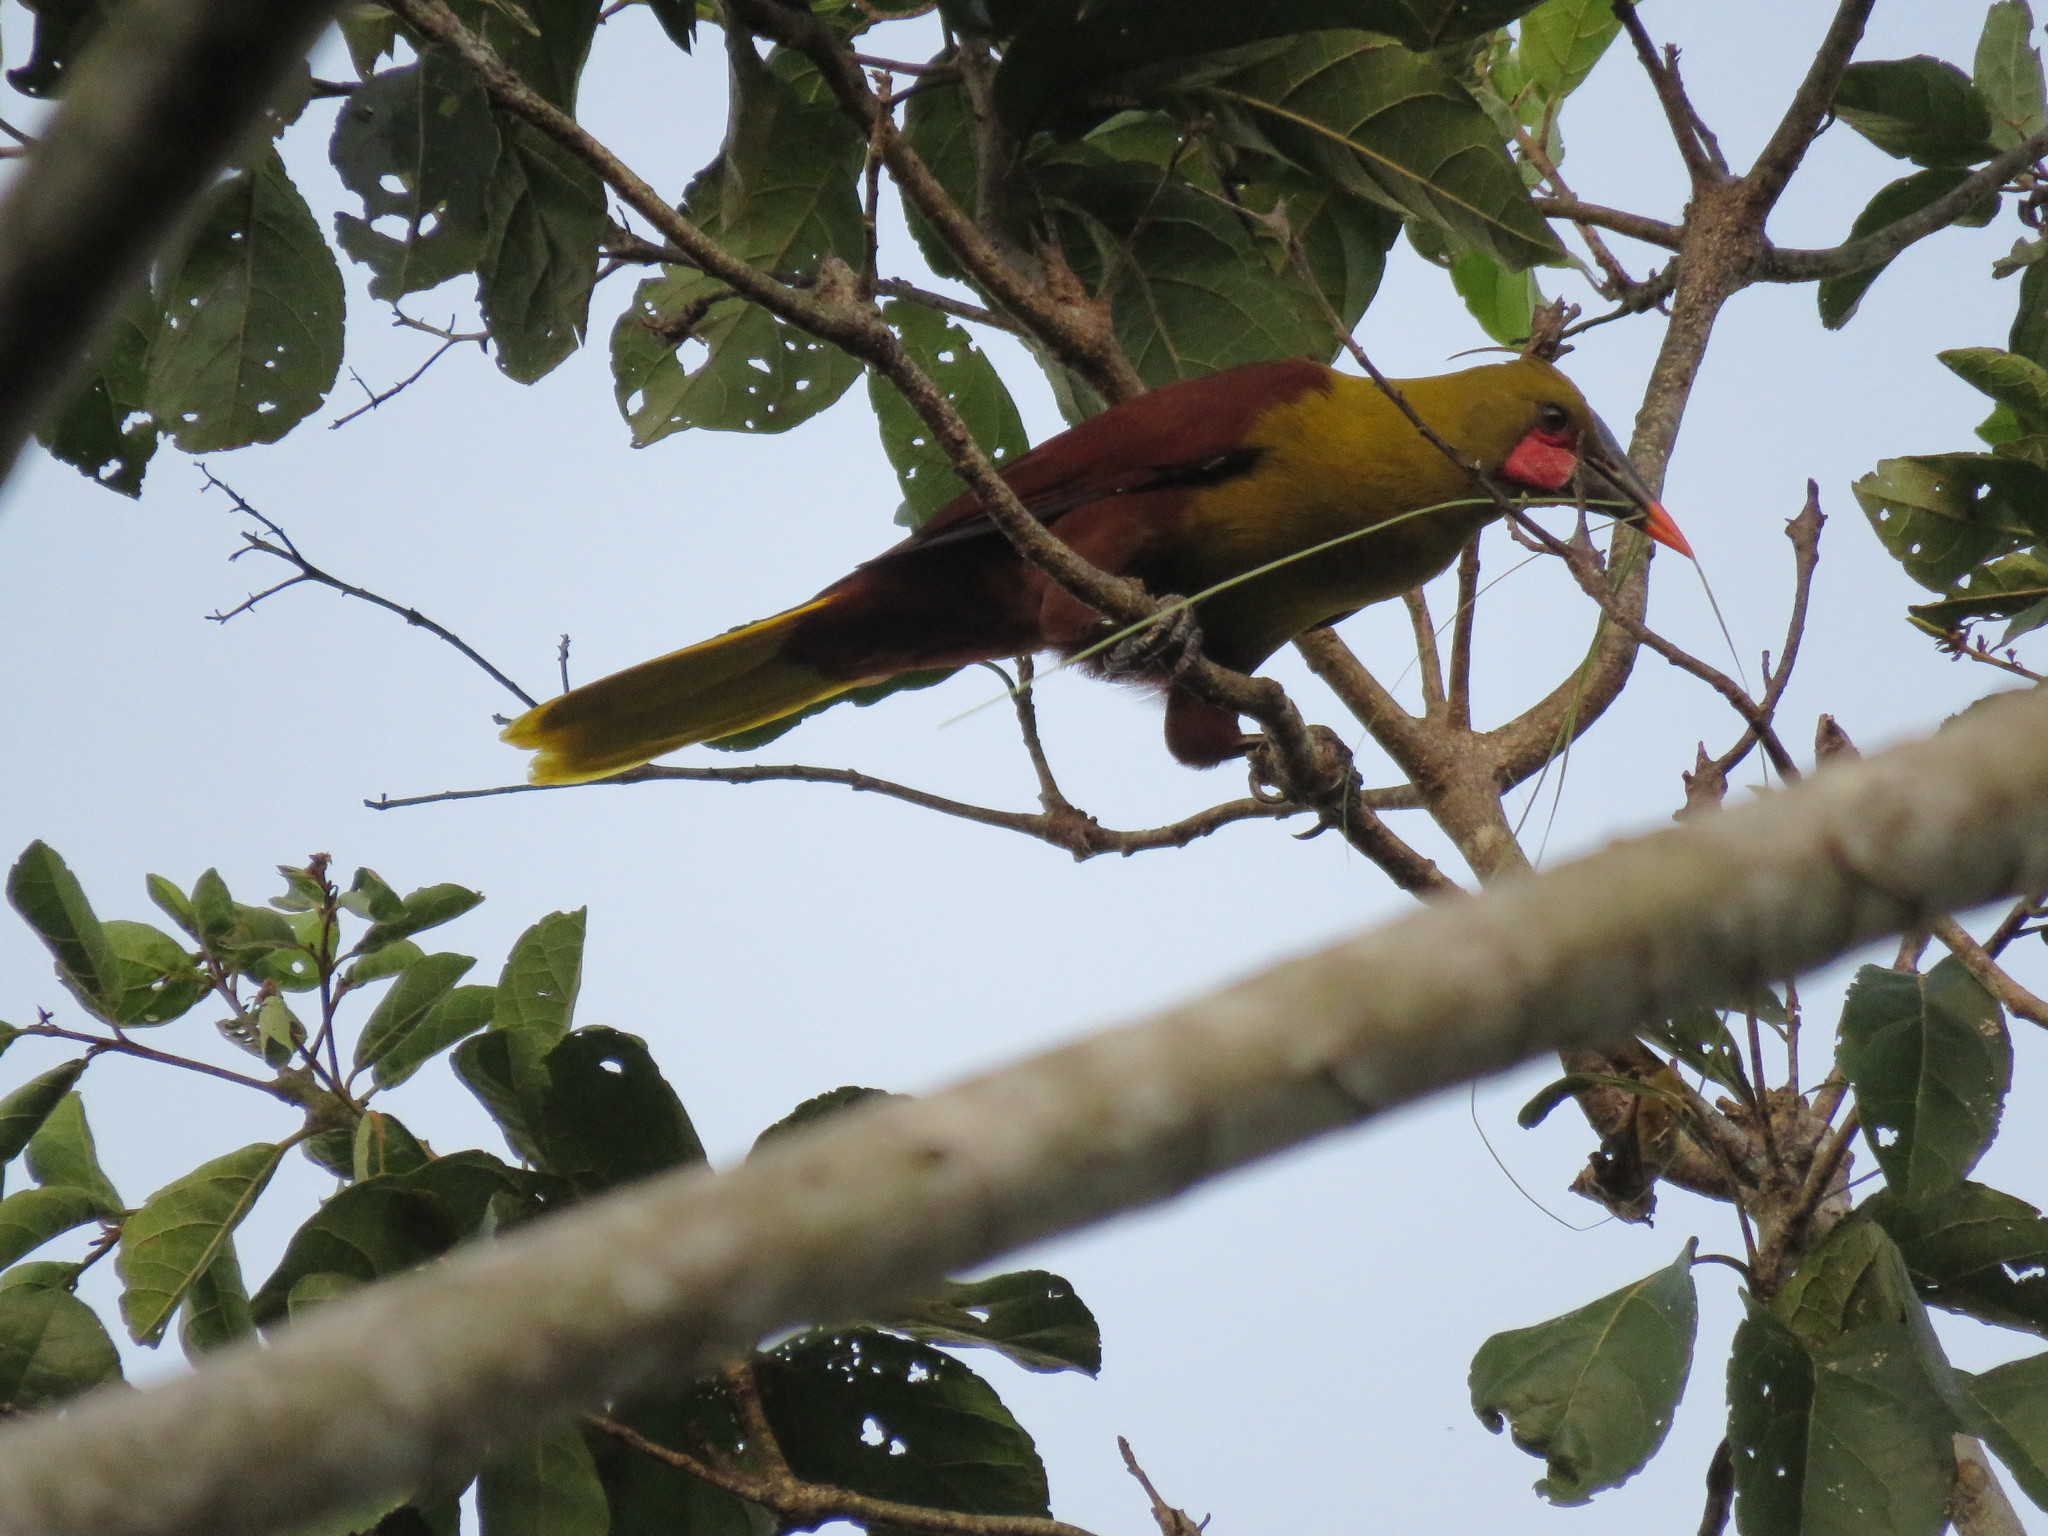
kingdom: Animalia
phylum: Chordata
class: Aves
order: Passeriformes
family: Icteridae
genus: Psarocolius
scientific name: Psarocolius bifasciatus
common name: Olive oropendola
